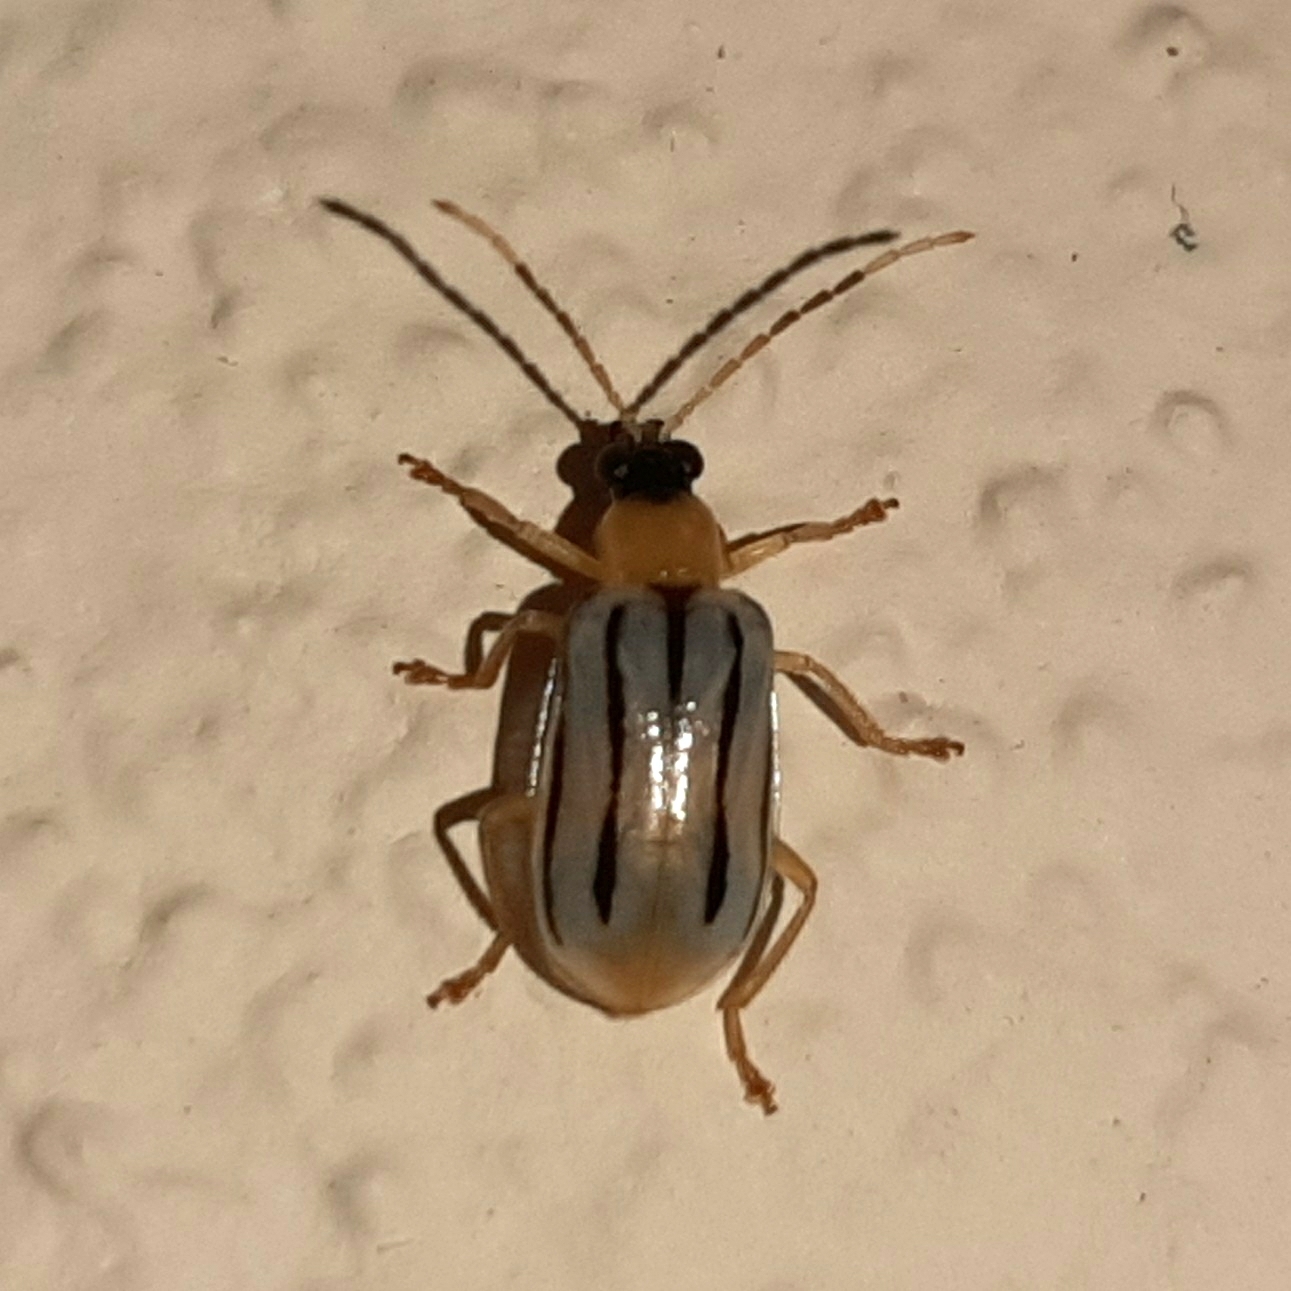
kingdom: Animalia
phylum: Arthropoda
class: Insecta
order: Coleoptera
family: Chrysomelidae
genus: Diabrotica
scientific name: Diabrotica
